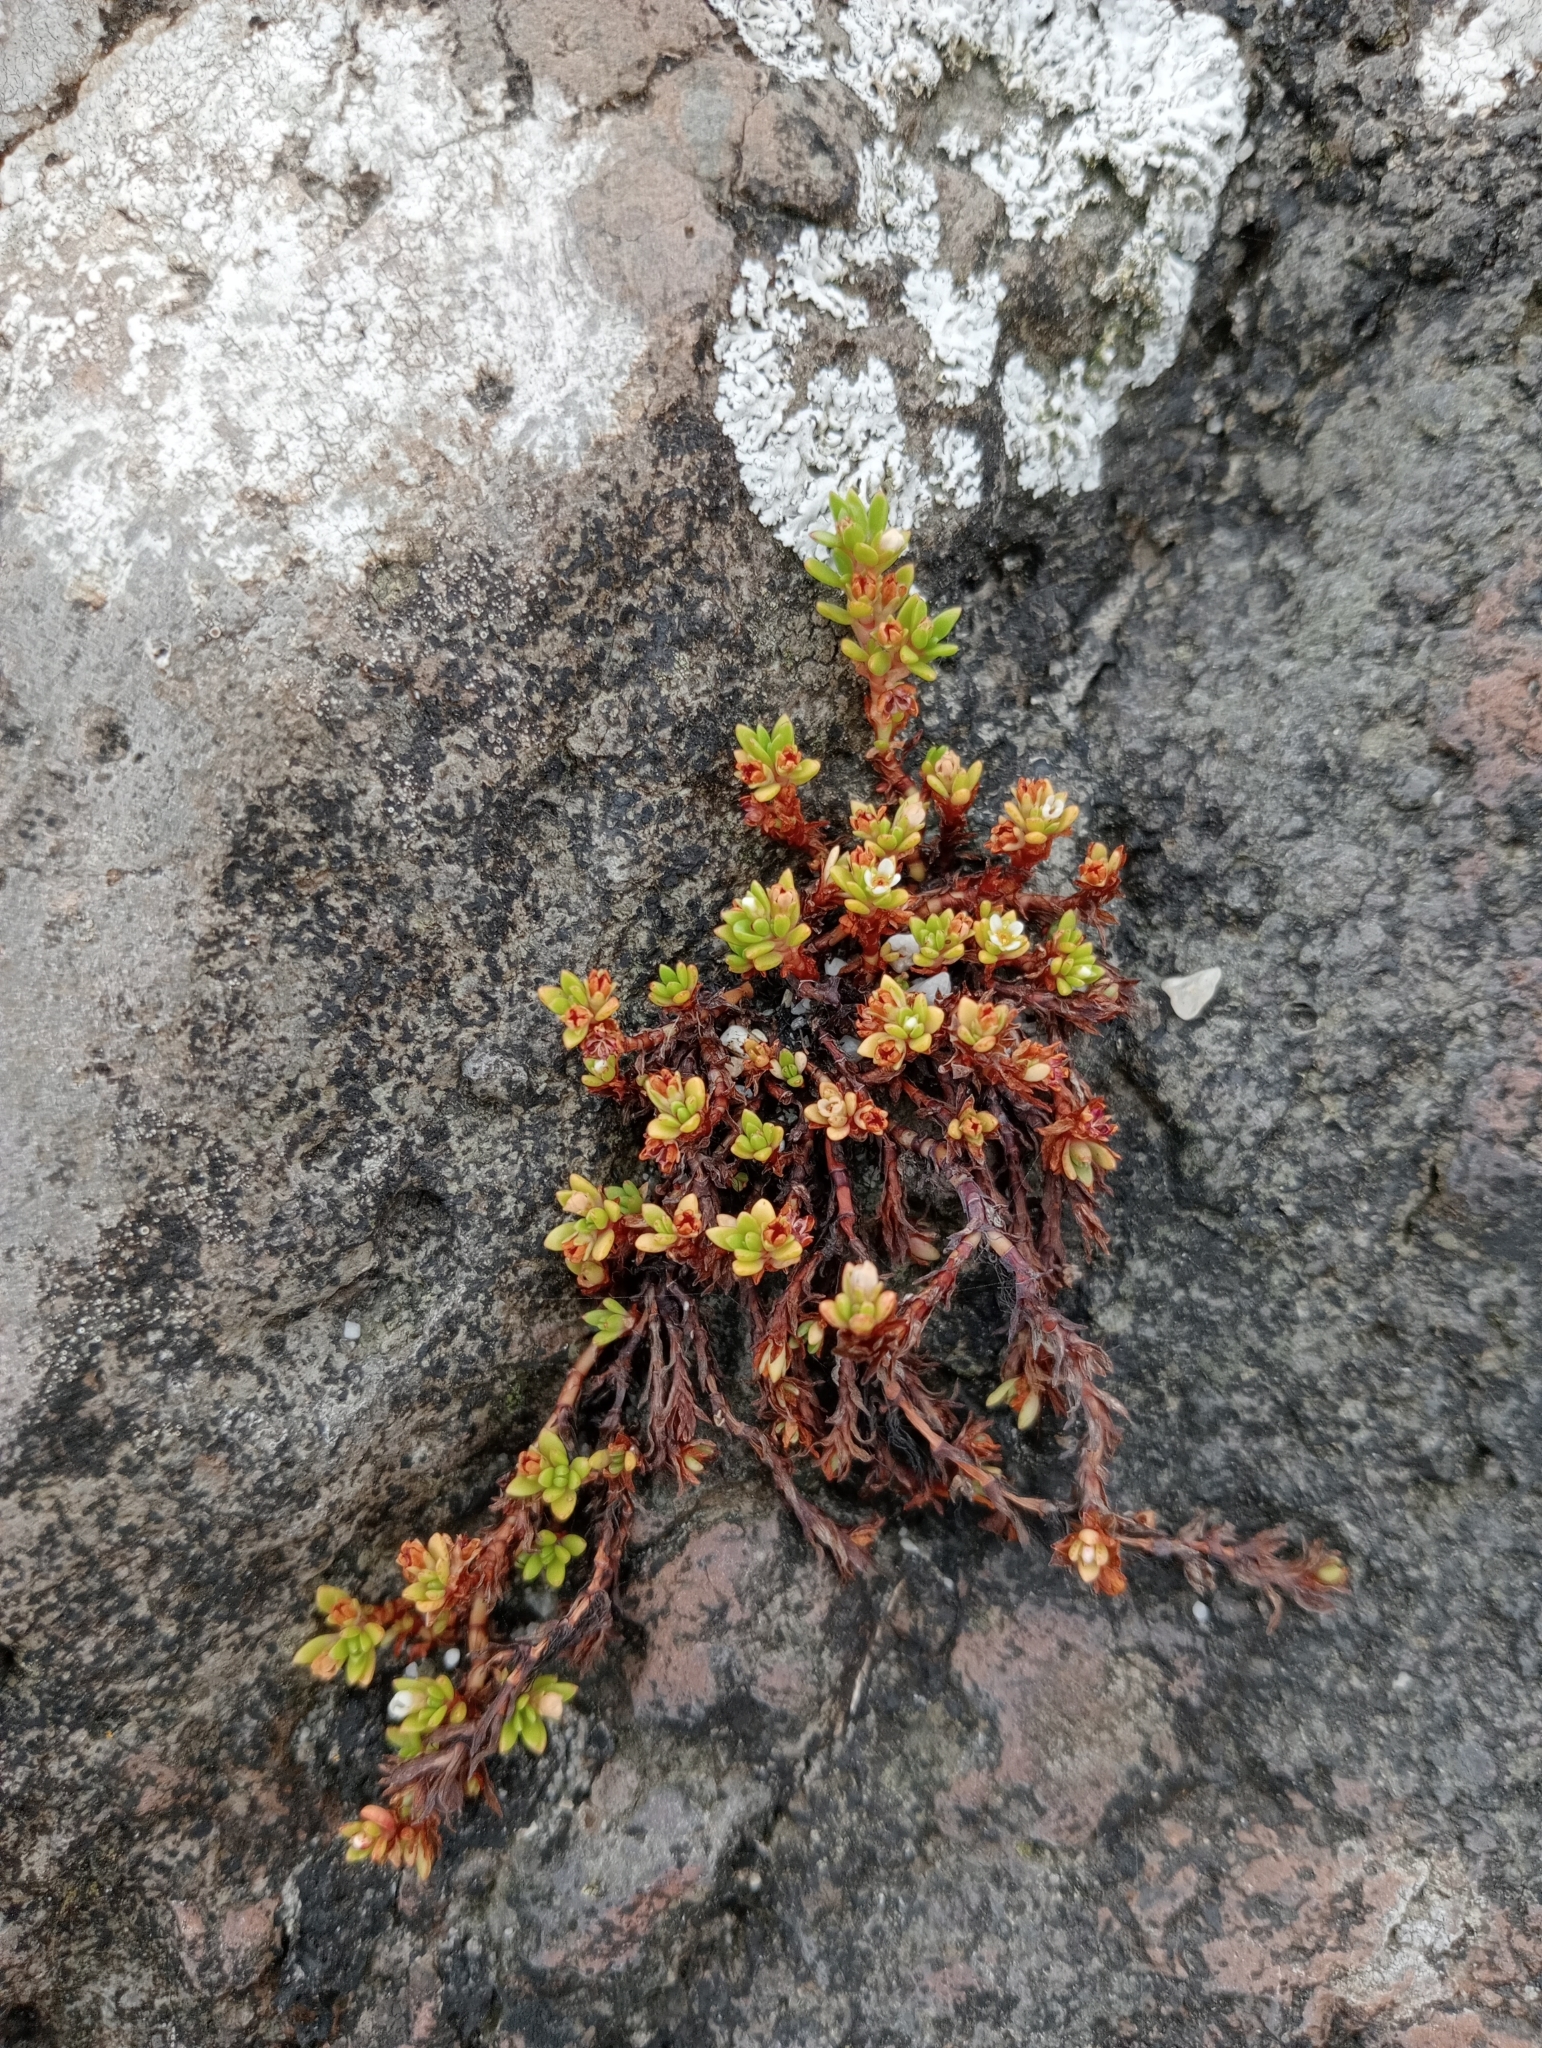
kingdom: Plantae
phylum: Tracheophyta
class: Magnoliopsida
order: Saxifragales
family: Crassulaceae
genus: Crassula
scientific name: Crassula moschata
